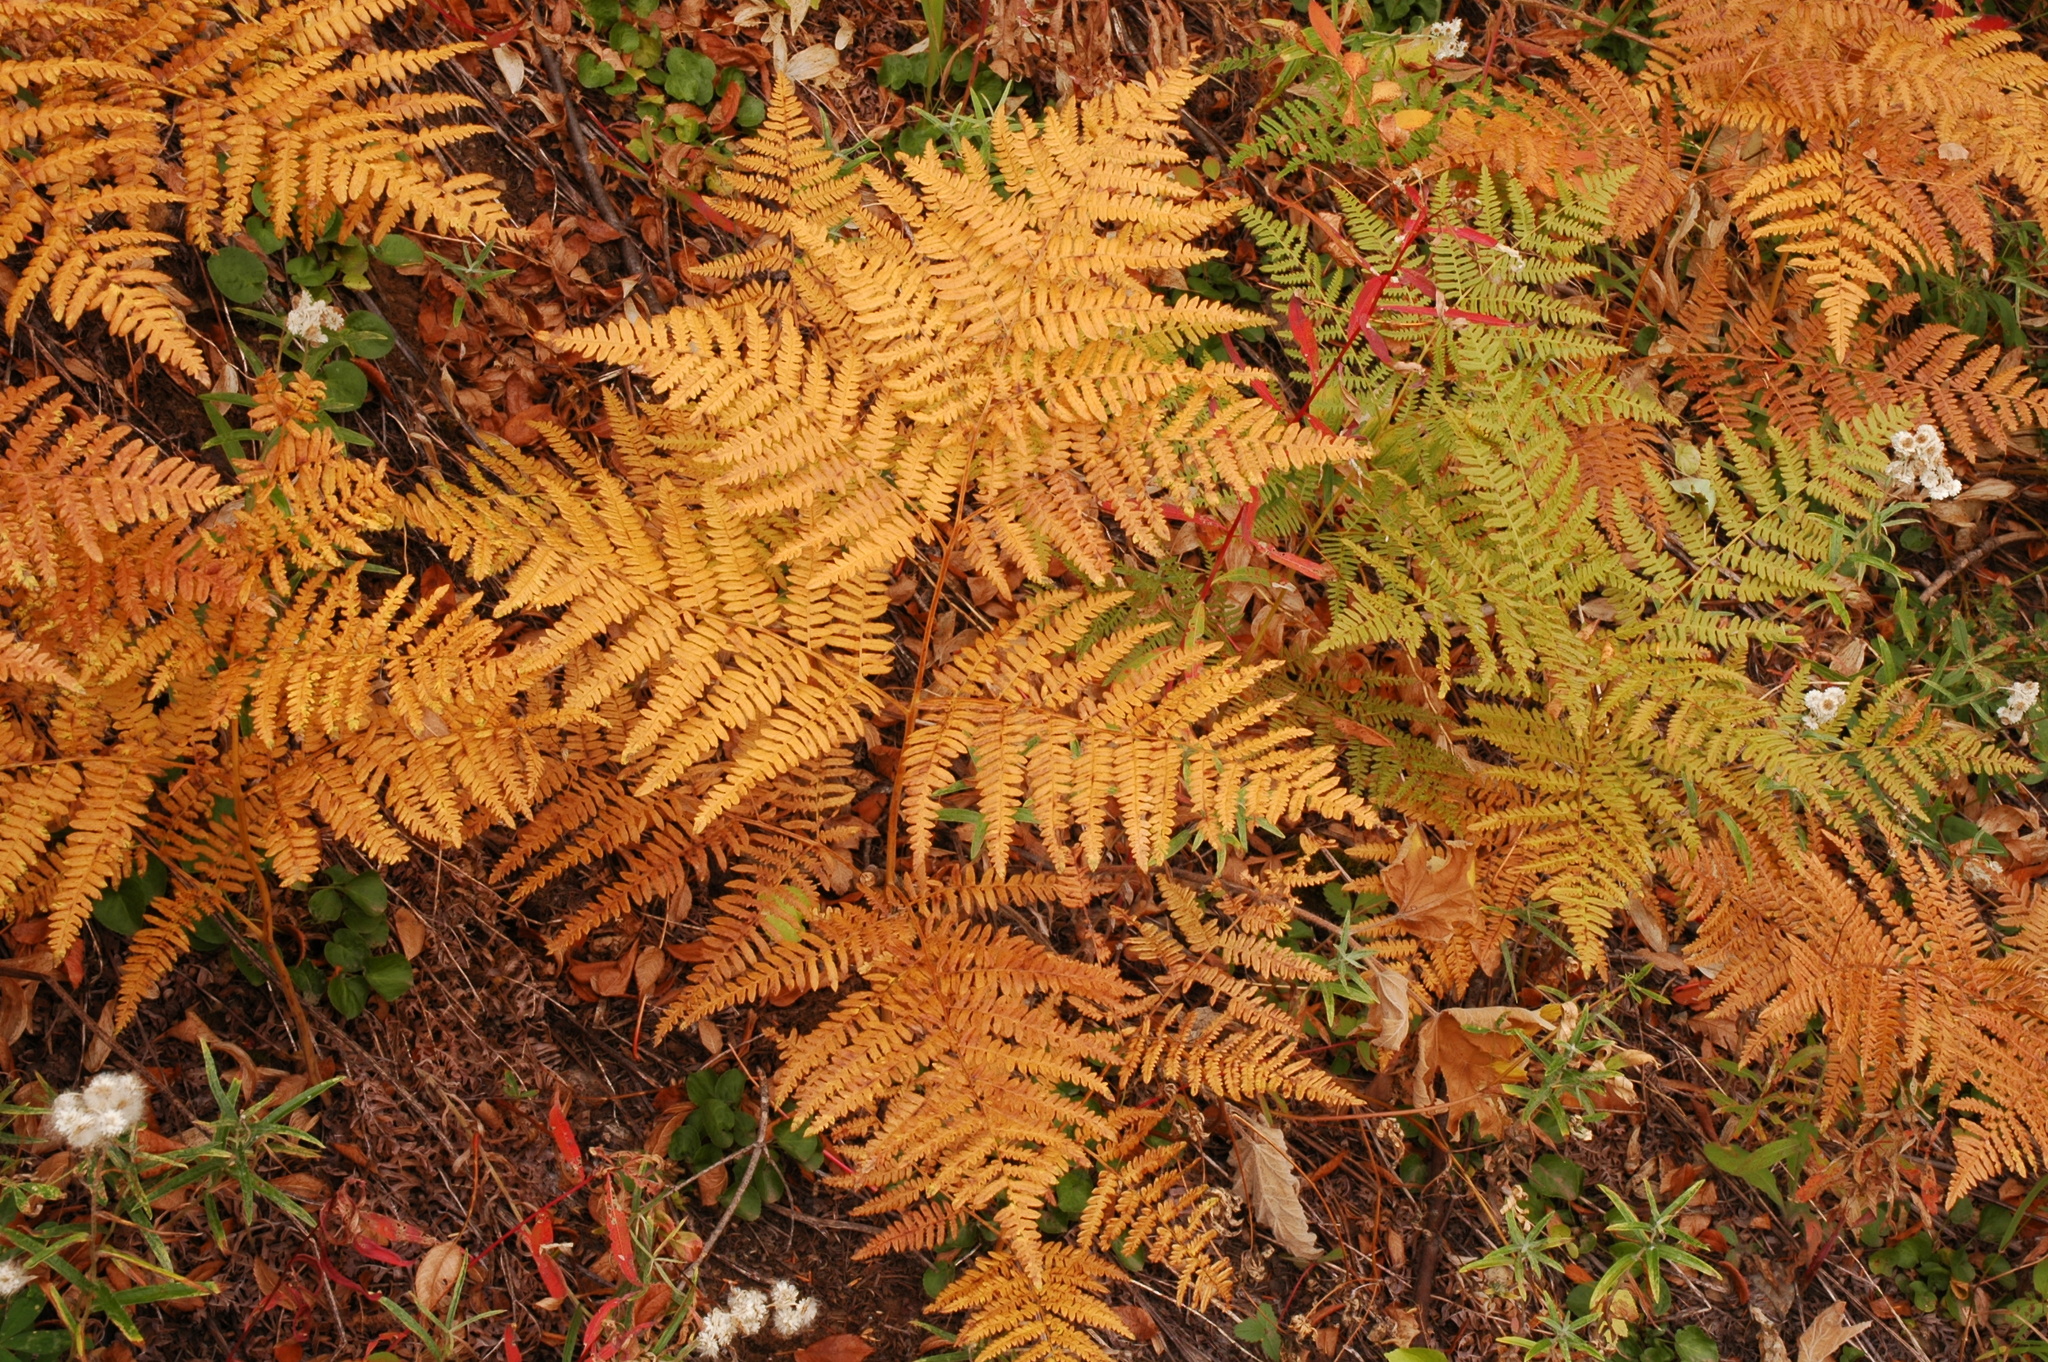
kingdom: Plantae
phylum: Tracheophyta
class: Polypodiopsida
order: Polypodiales
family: Dennstaedtiaceae
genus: Pteridium
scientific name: Pteridium aquilinum
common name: Bracken
